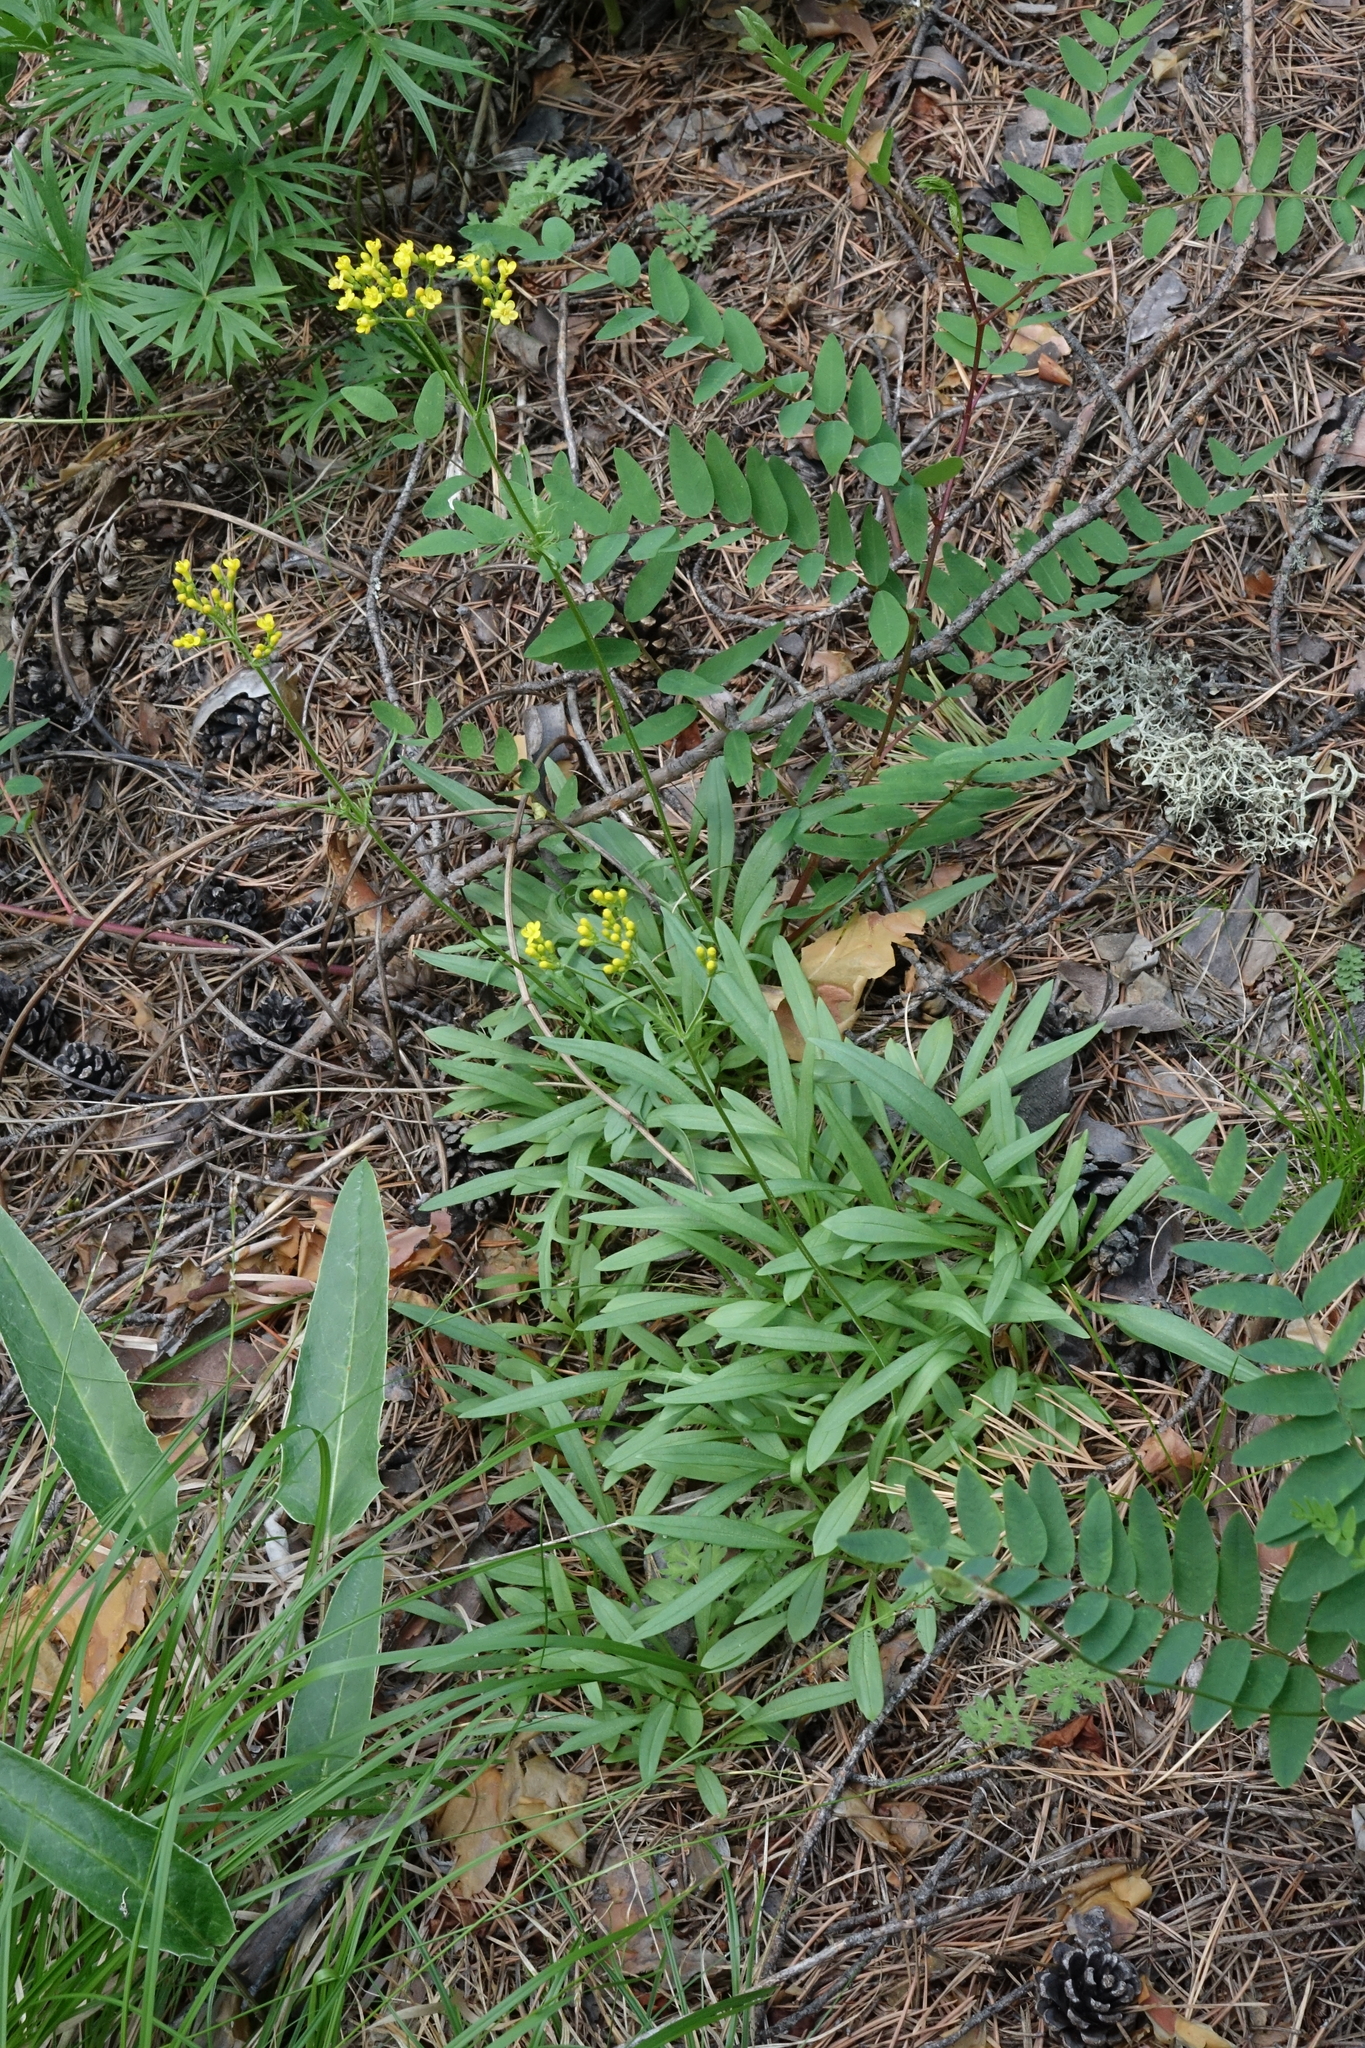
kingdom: Plantae
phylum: Tracheophyta
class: Magnoliopsida
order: Dipsacales
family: Caprifoliaceae
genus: Patrinia
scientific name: Patrinia sibirica
